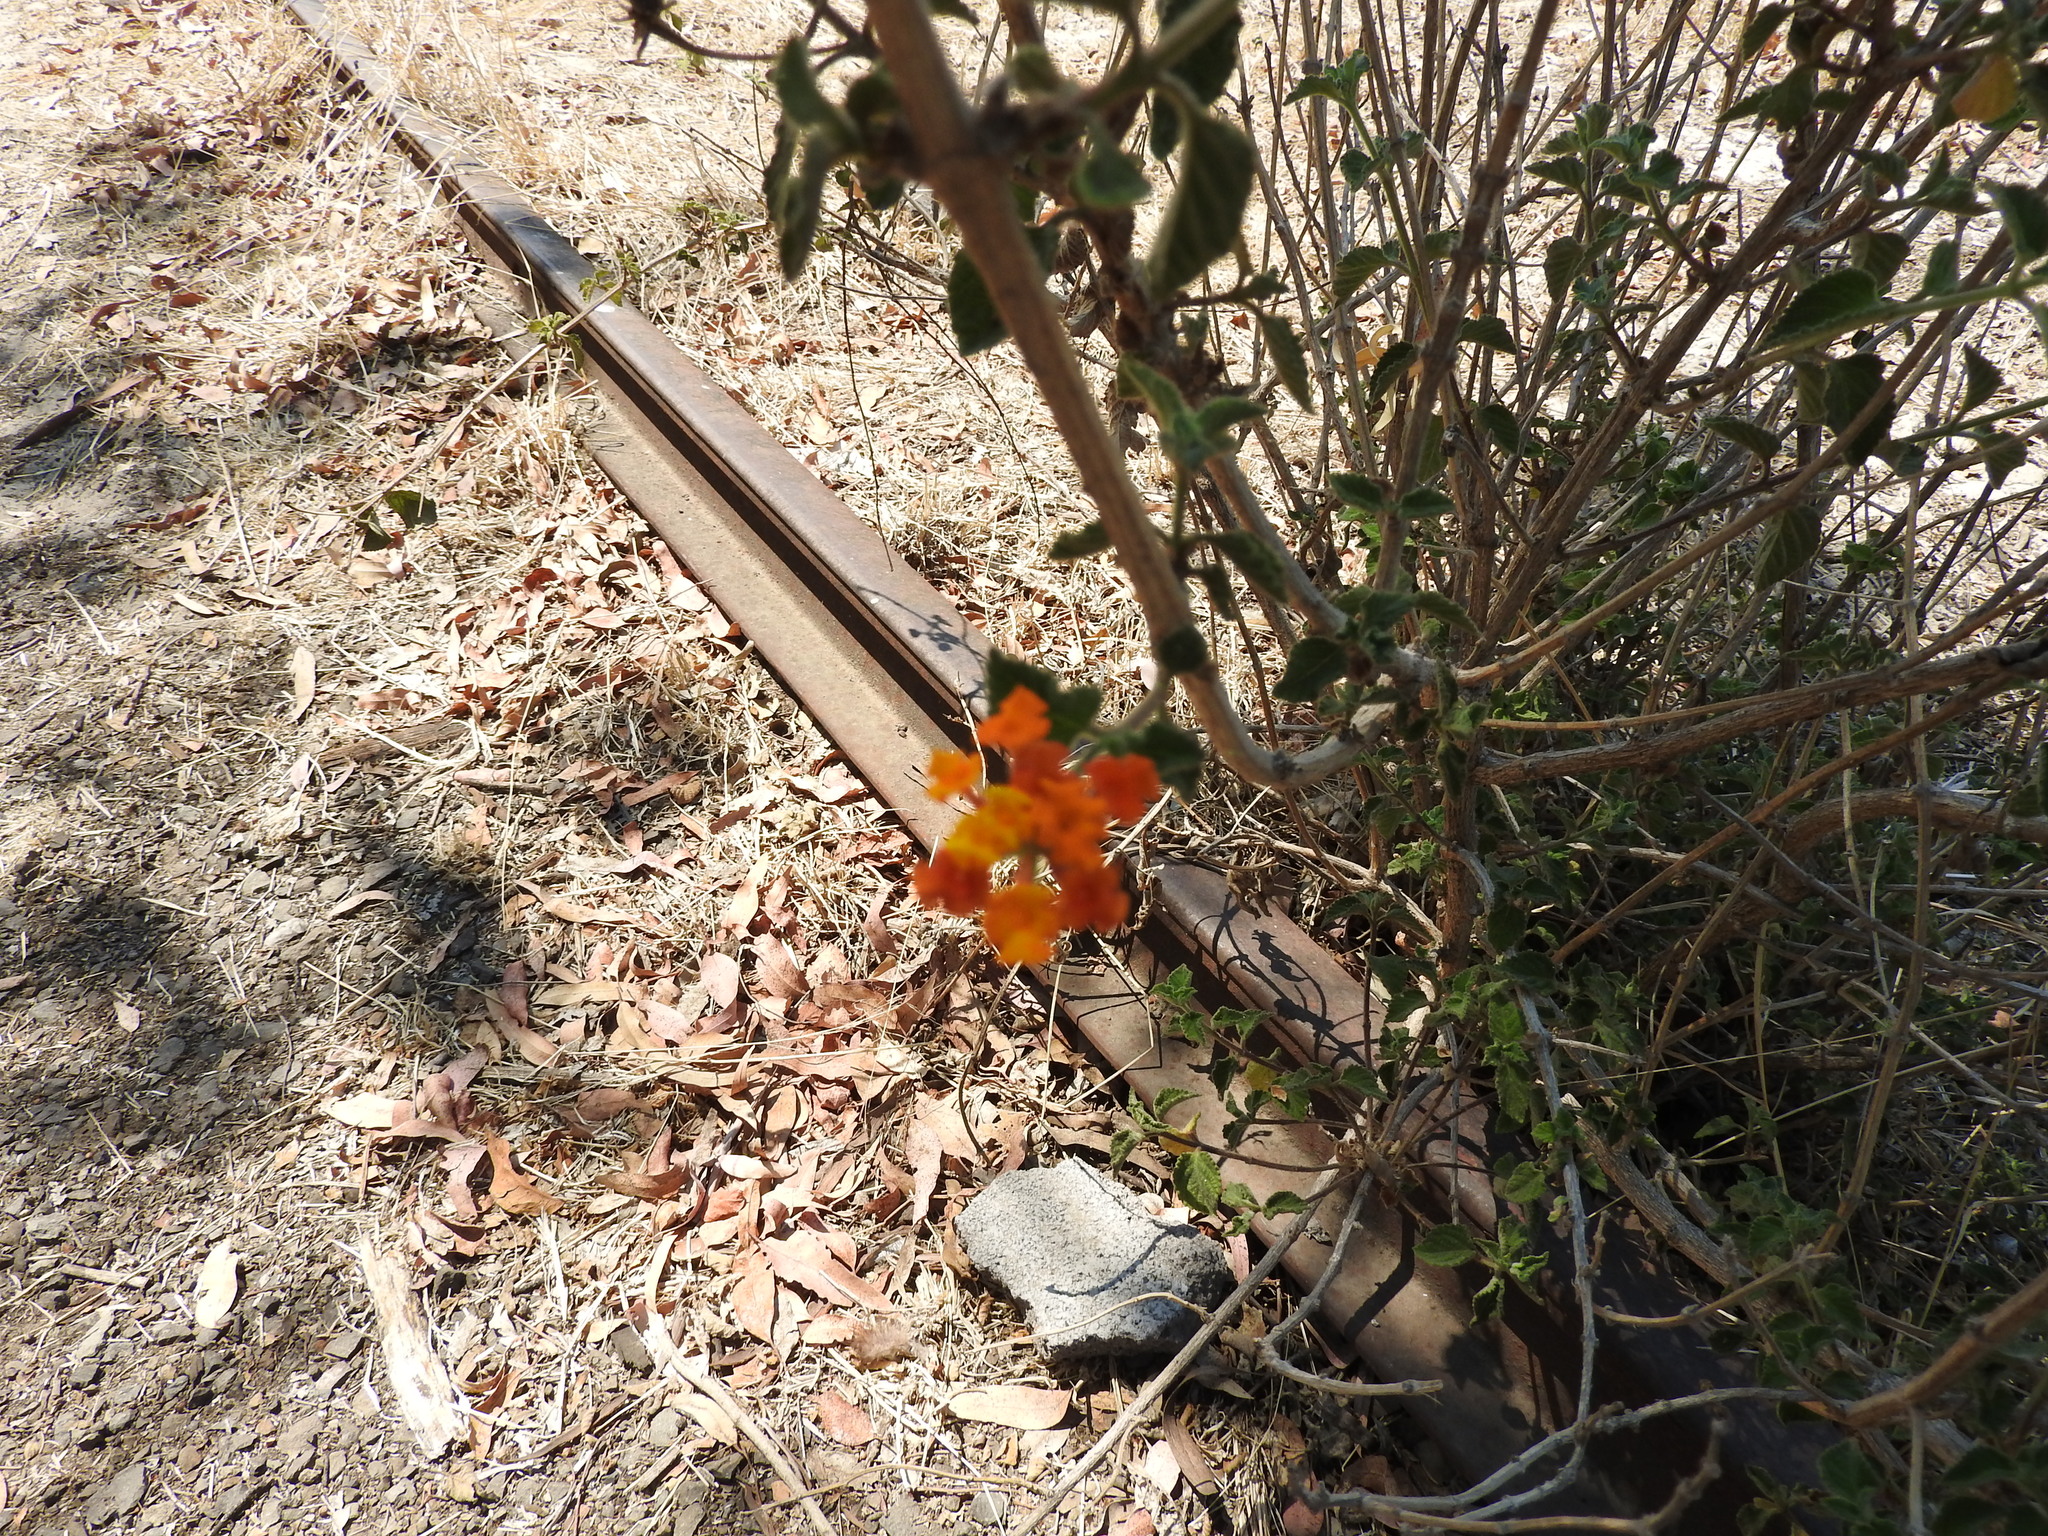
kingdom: Plantae
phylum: Tracheophyta
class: Magnoliopsida
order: Lamiales
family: Verbenaceae
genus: Lantana
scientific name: Lantana camara
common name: Lantana
